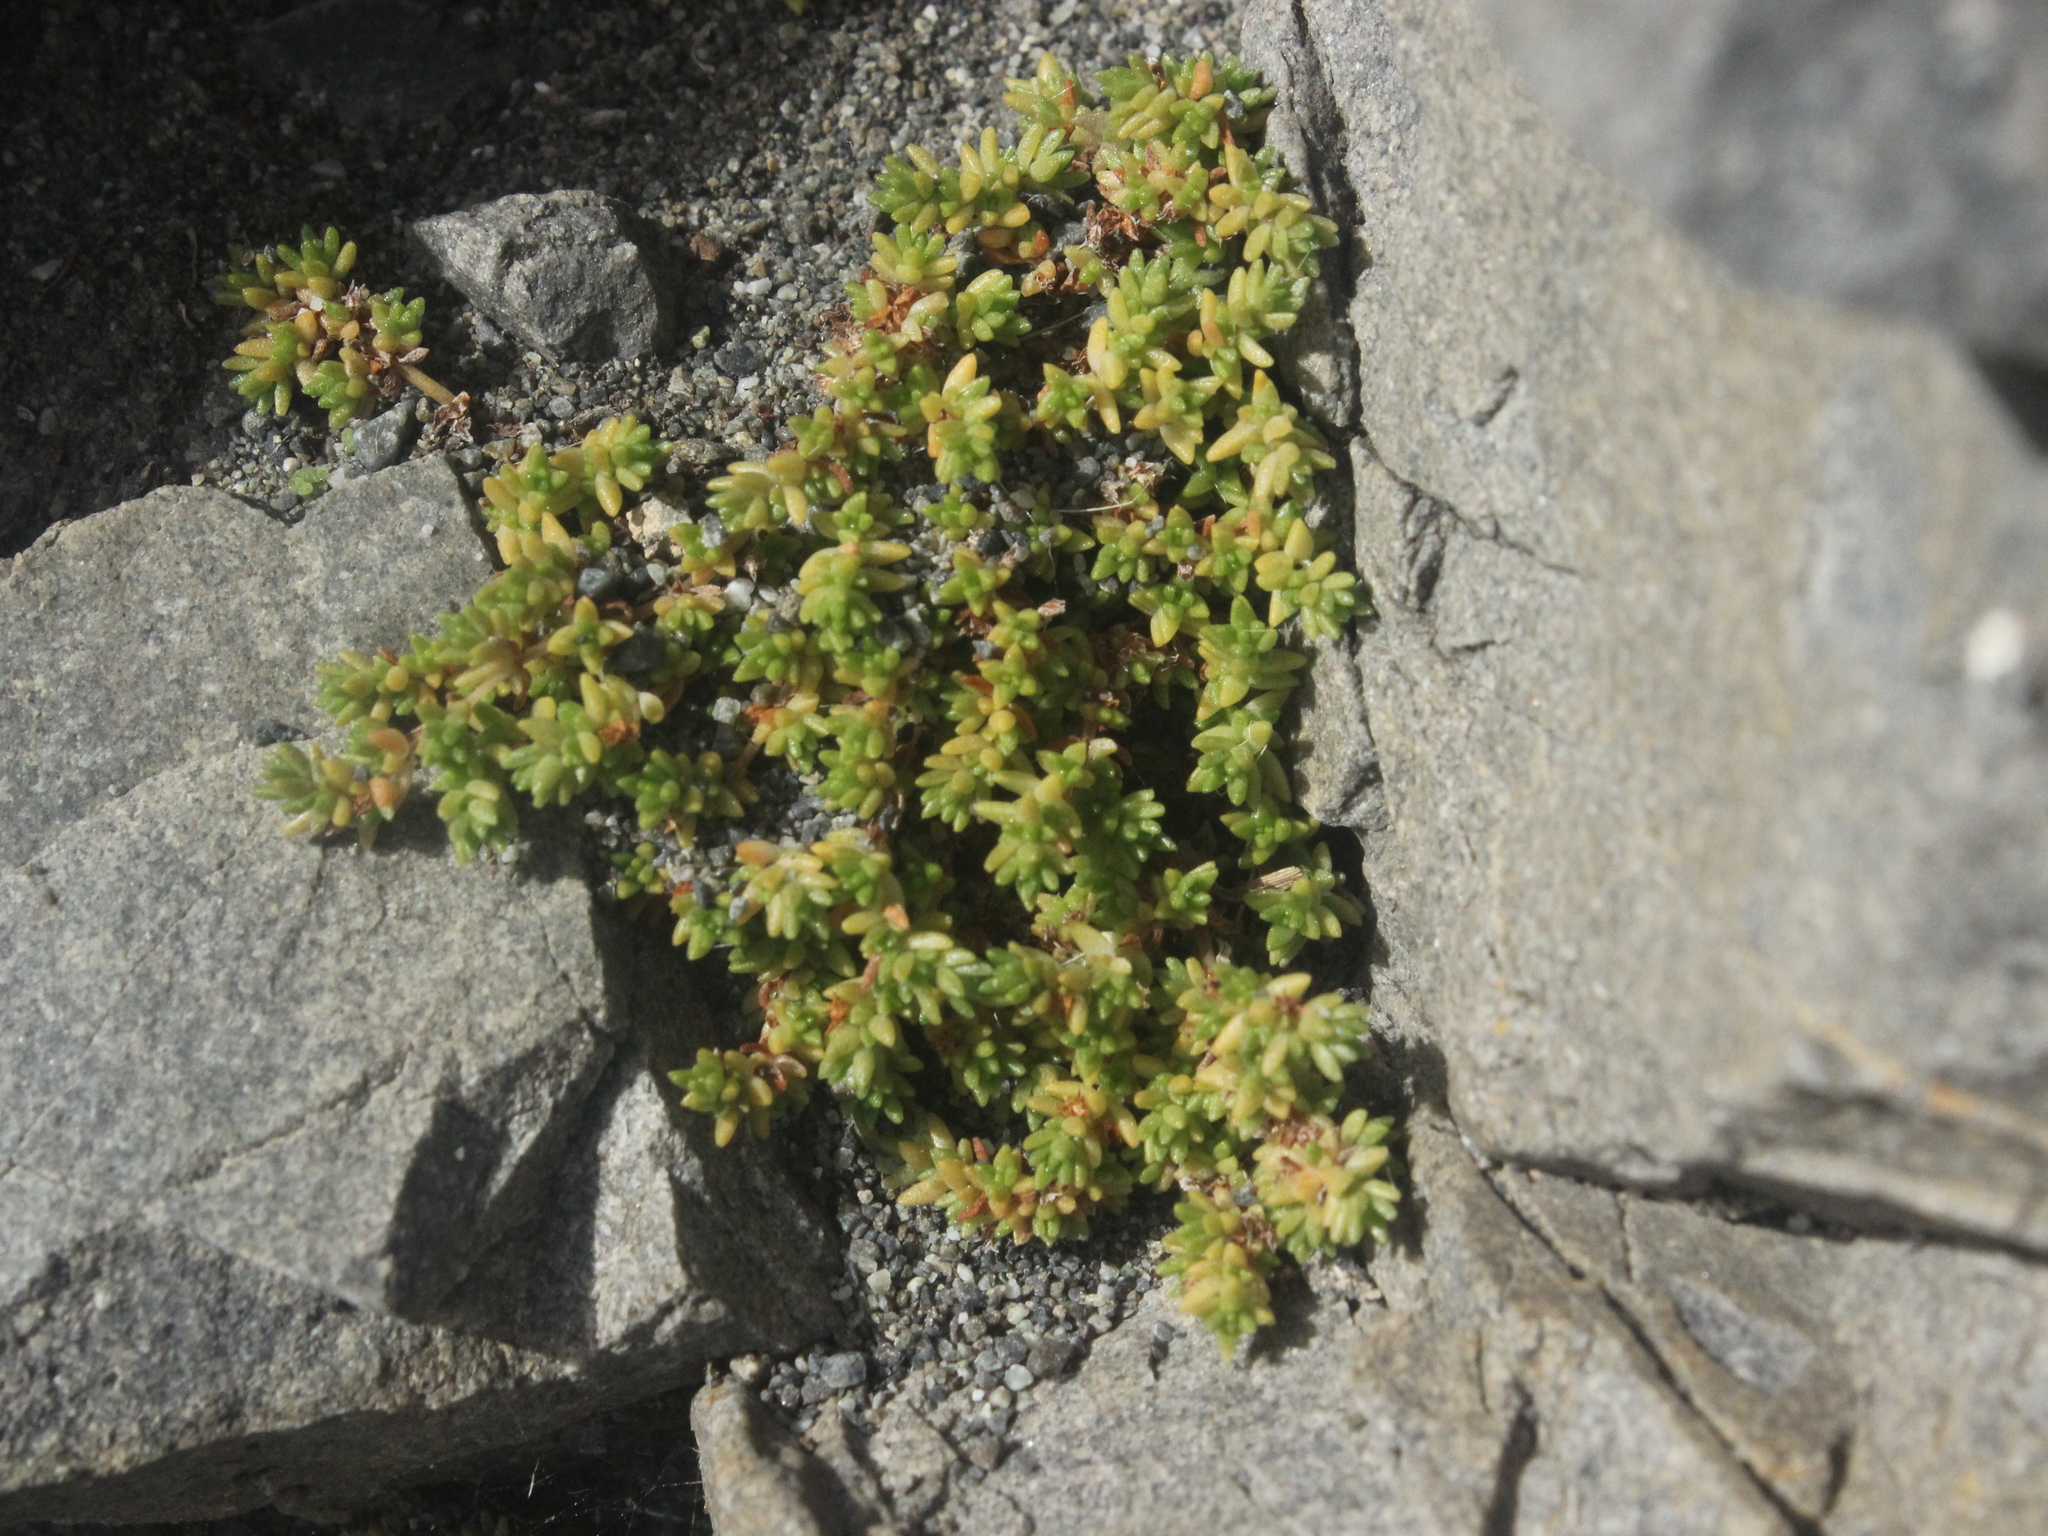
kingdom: Plantae
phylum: Tracheophyta
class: Magnoliopsida
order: Saxifragales
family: Crassulaceae
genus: Crassula
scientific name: Crassula moschata
